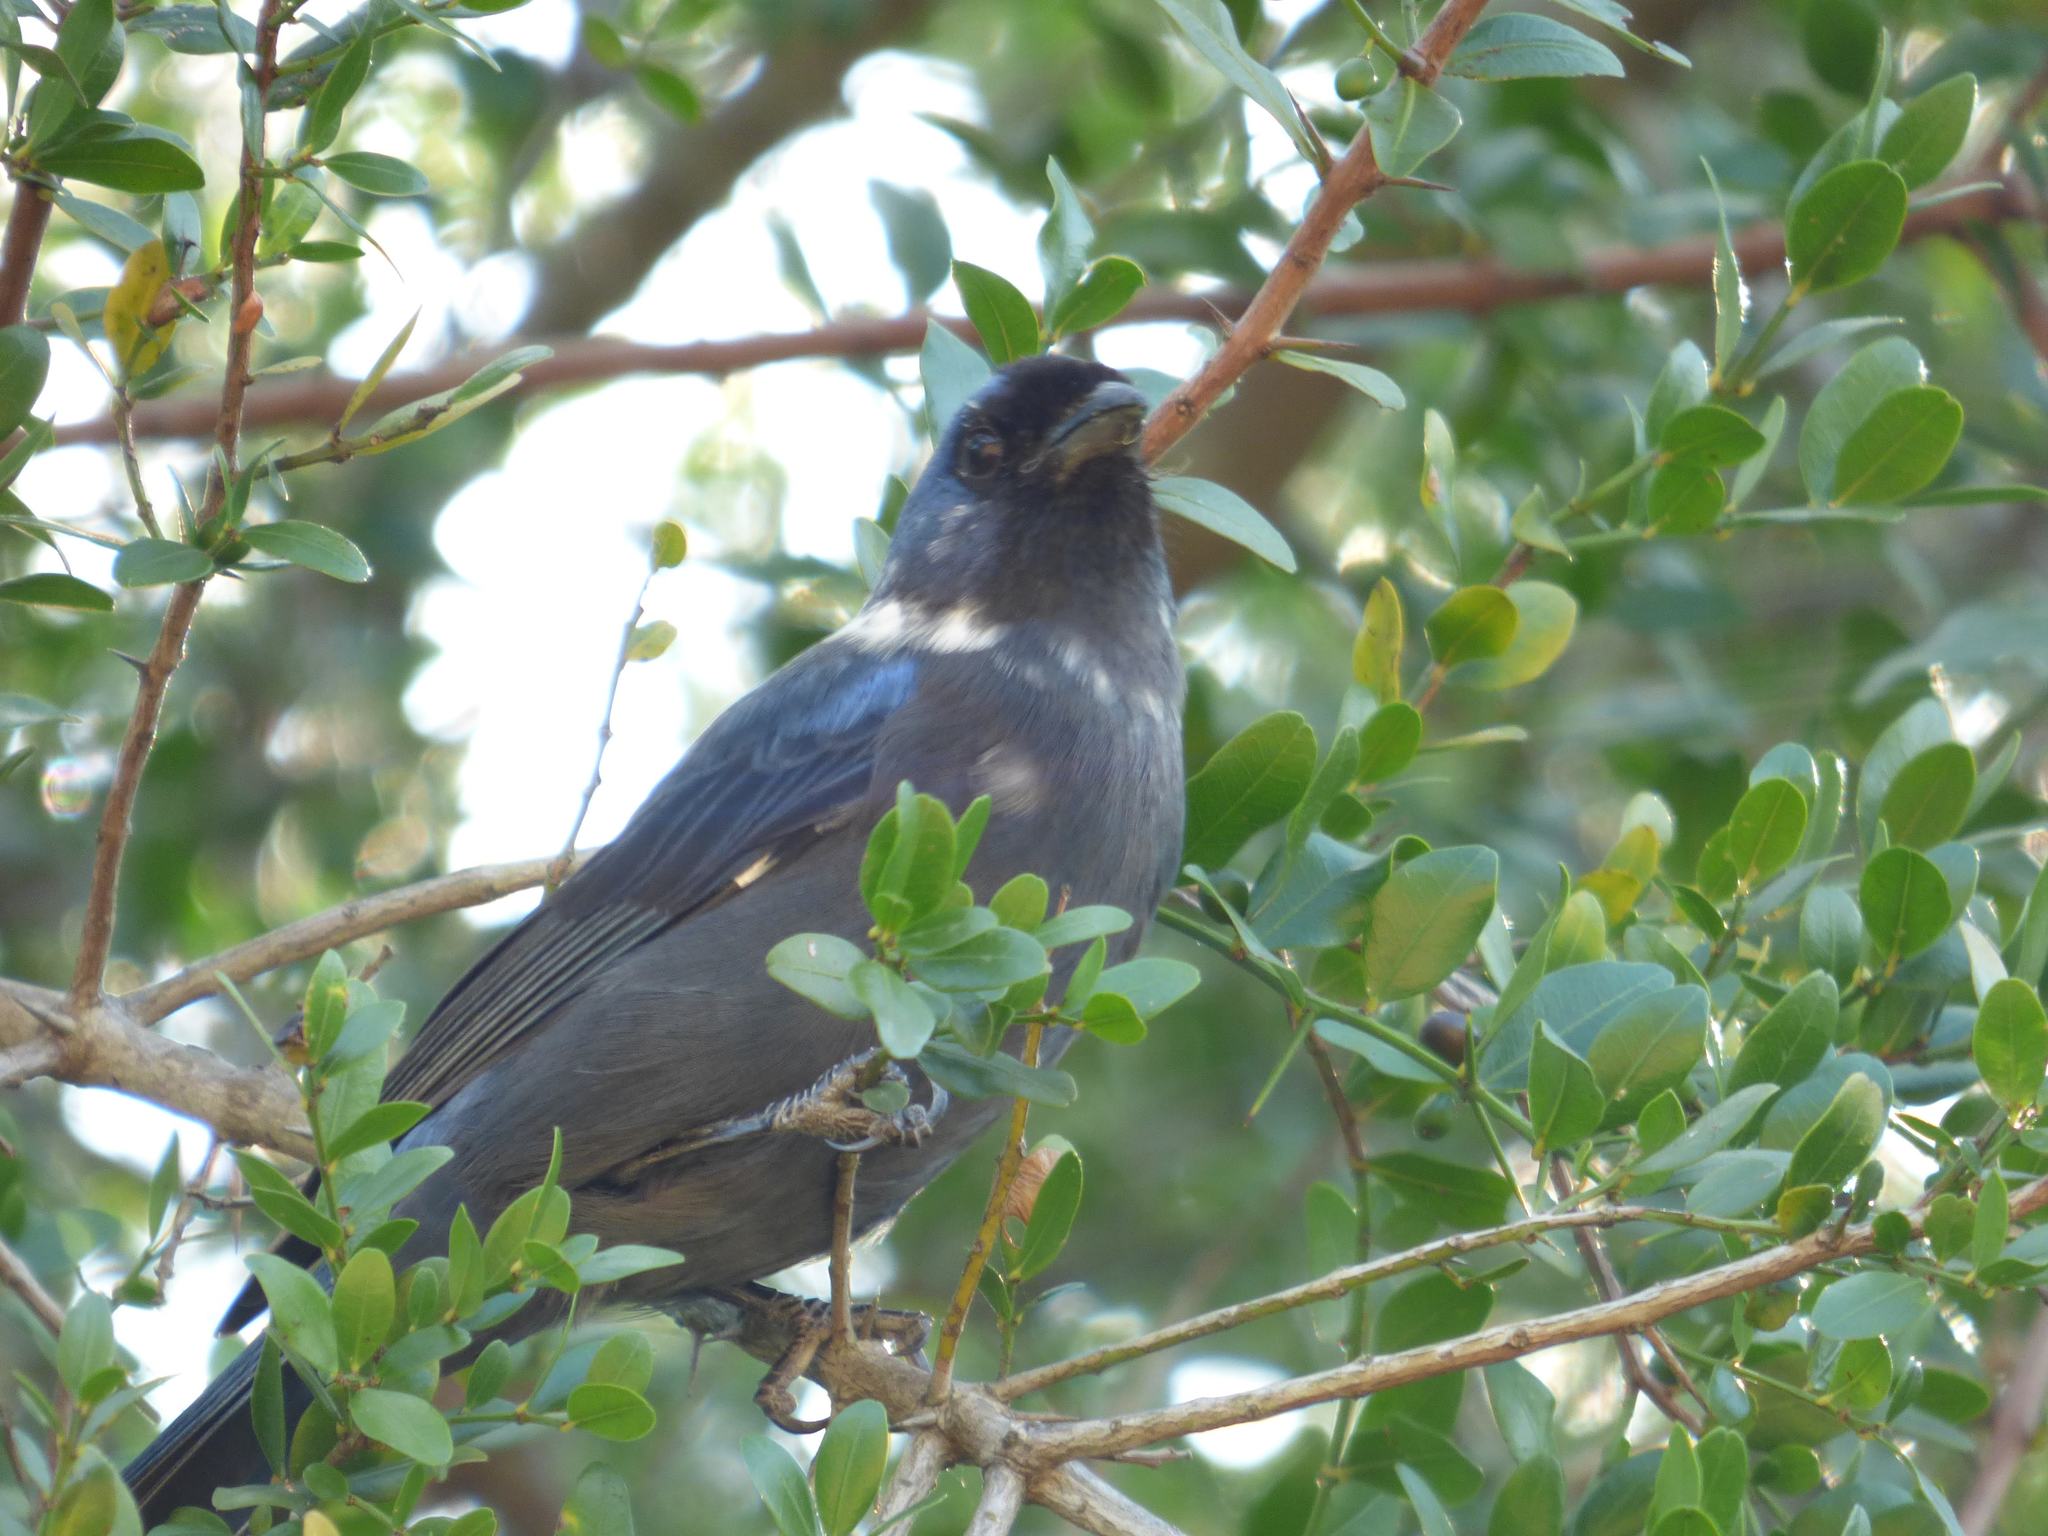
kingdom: Animalia
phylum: Chordata
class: Aves
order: Passeriformes
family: Thraupidae
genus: Stephanophorus
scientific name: Stephanophorus diadematus
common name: Diademed tanager
